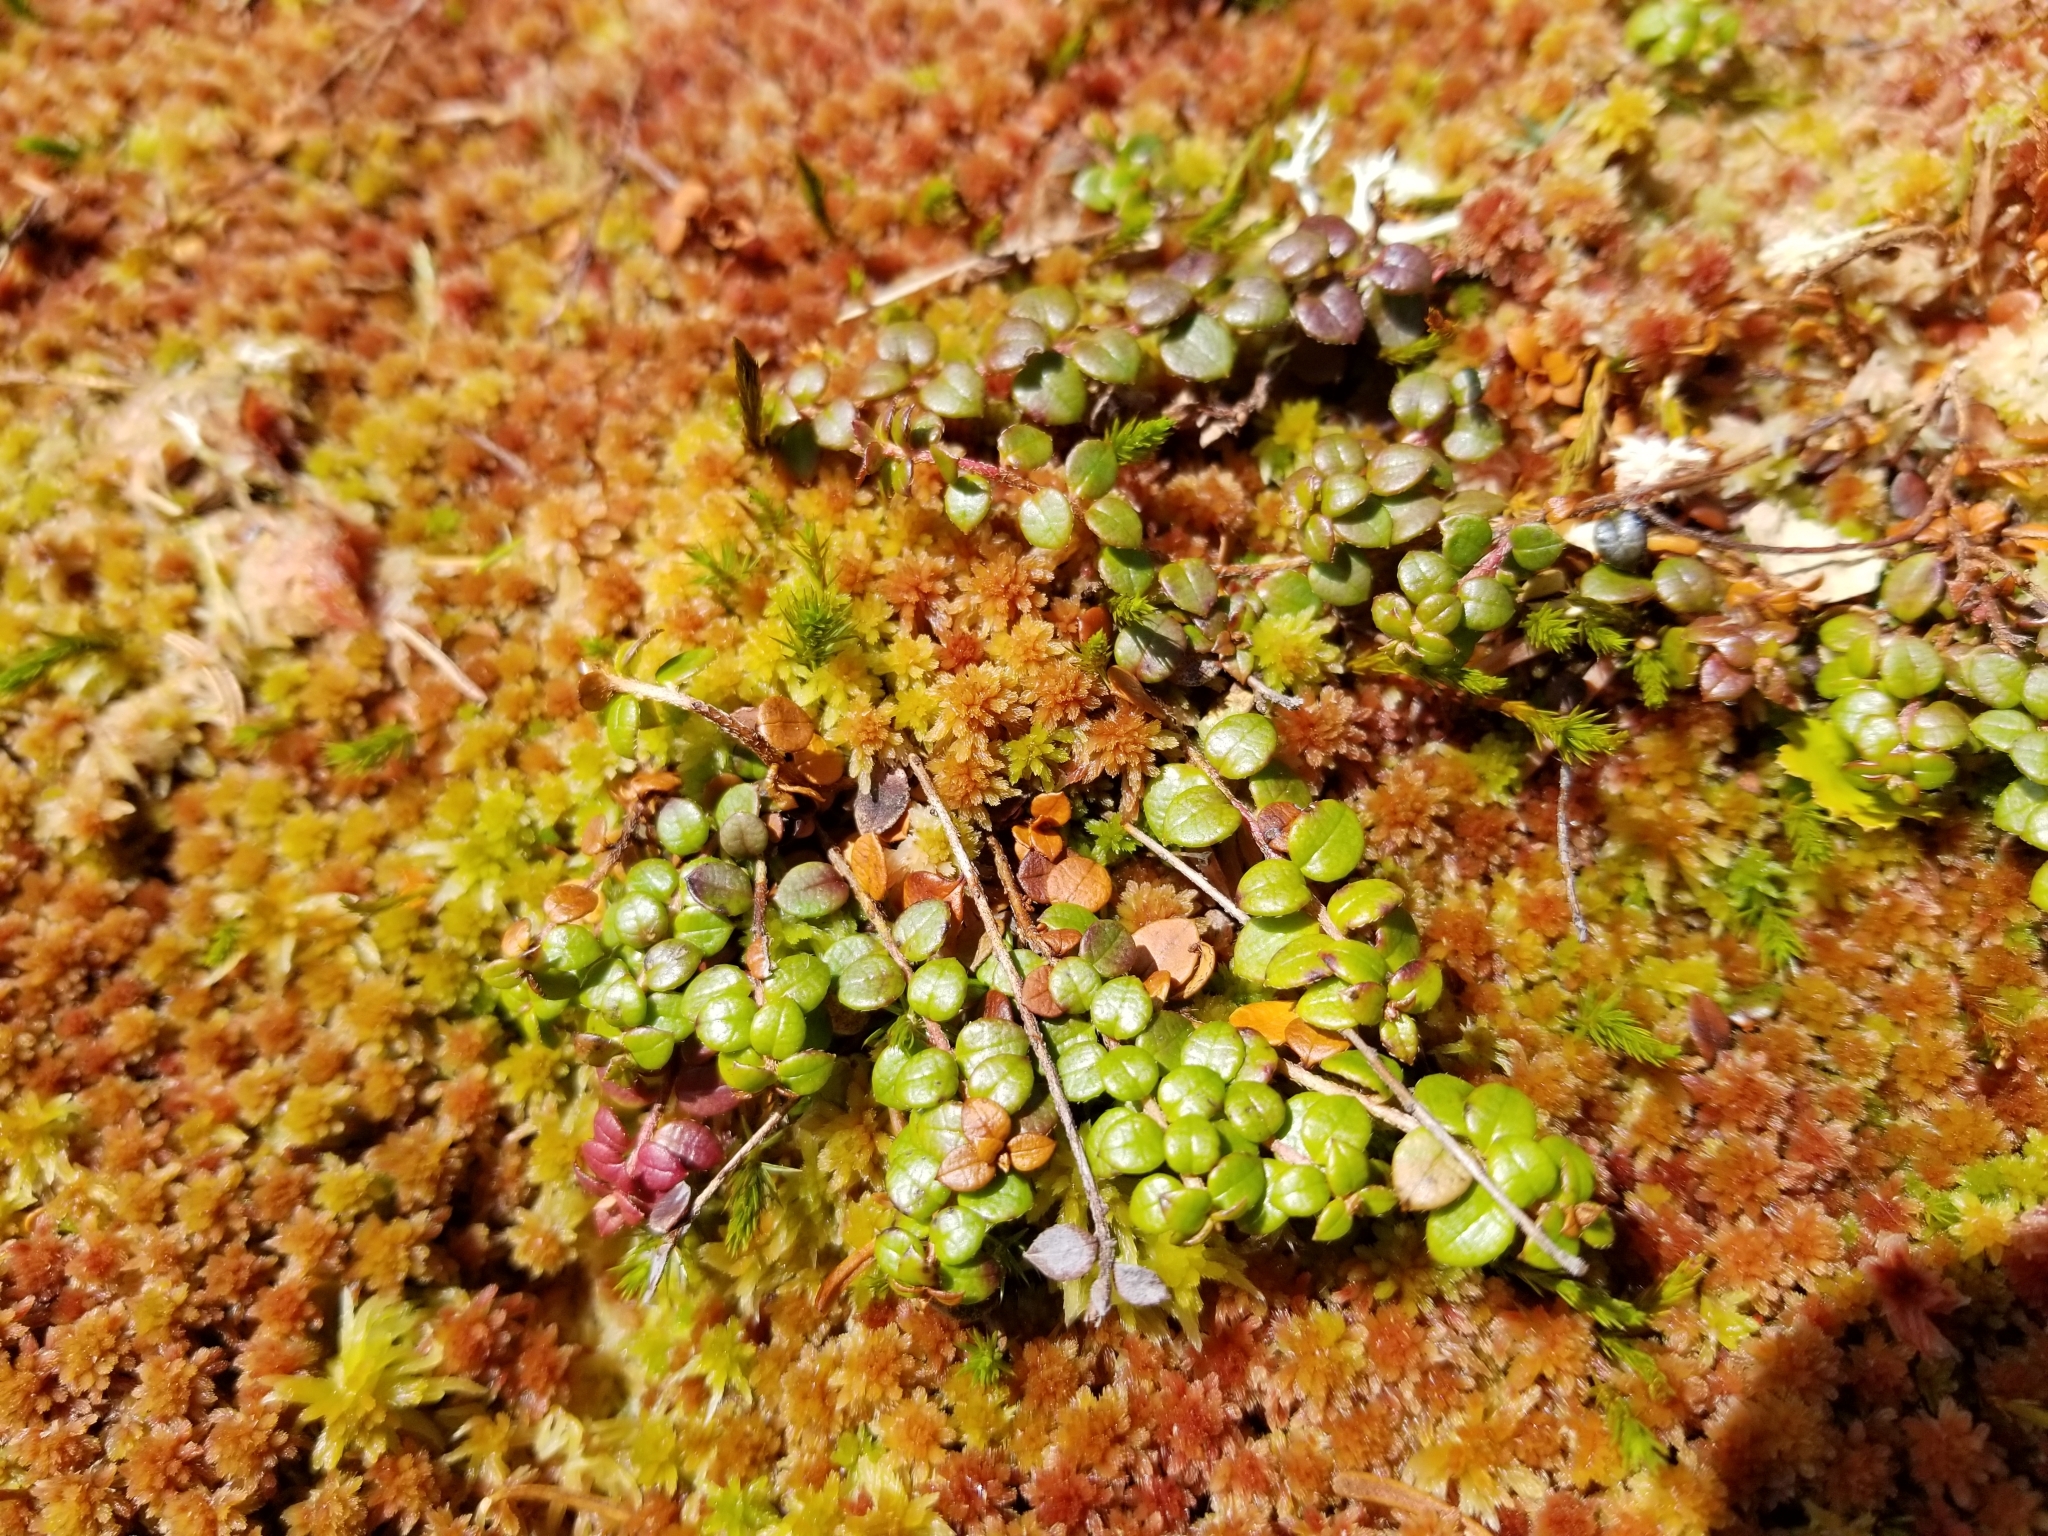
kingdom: Plantae
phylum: Tracheophyta
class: Magnoliopsida
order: Ericales
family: Ericaceae
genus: Gaultheria
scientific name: Gaultheria hispidula
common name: Cancer wintergreen
